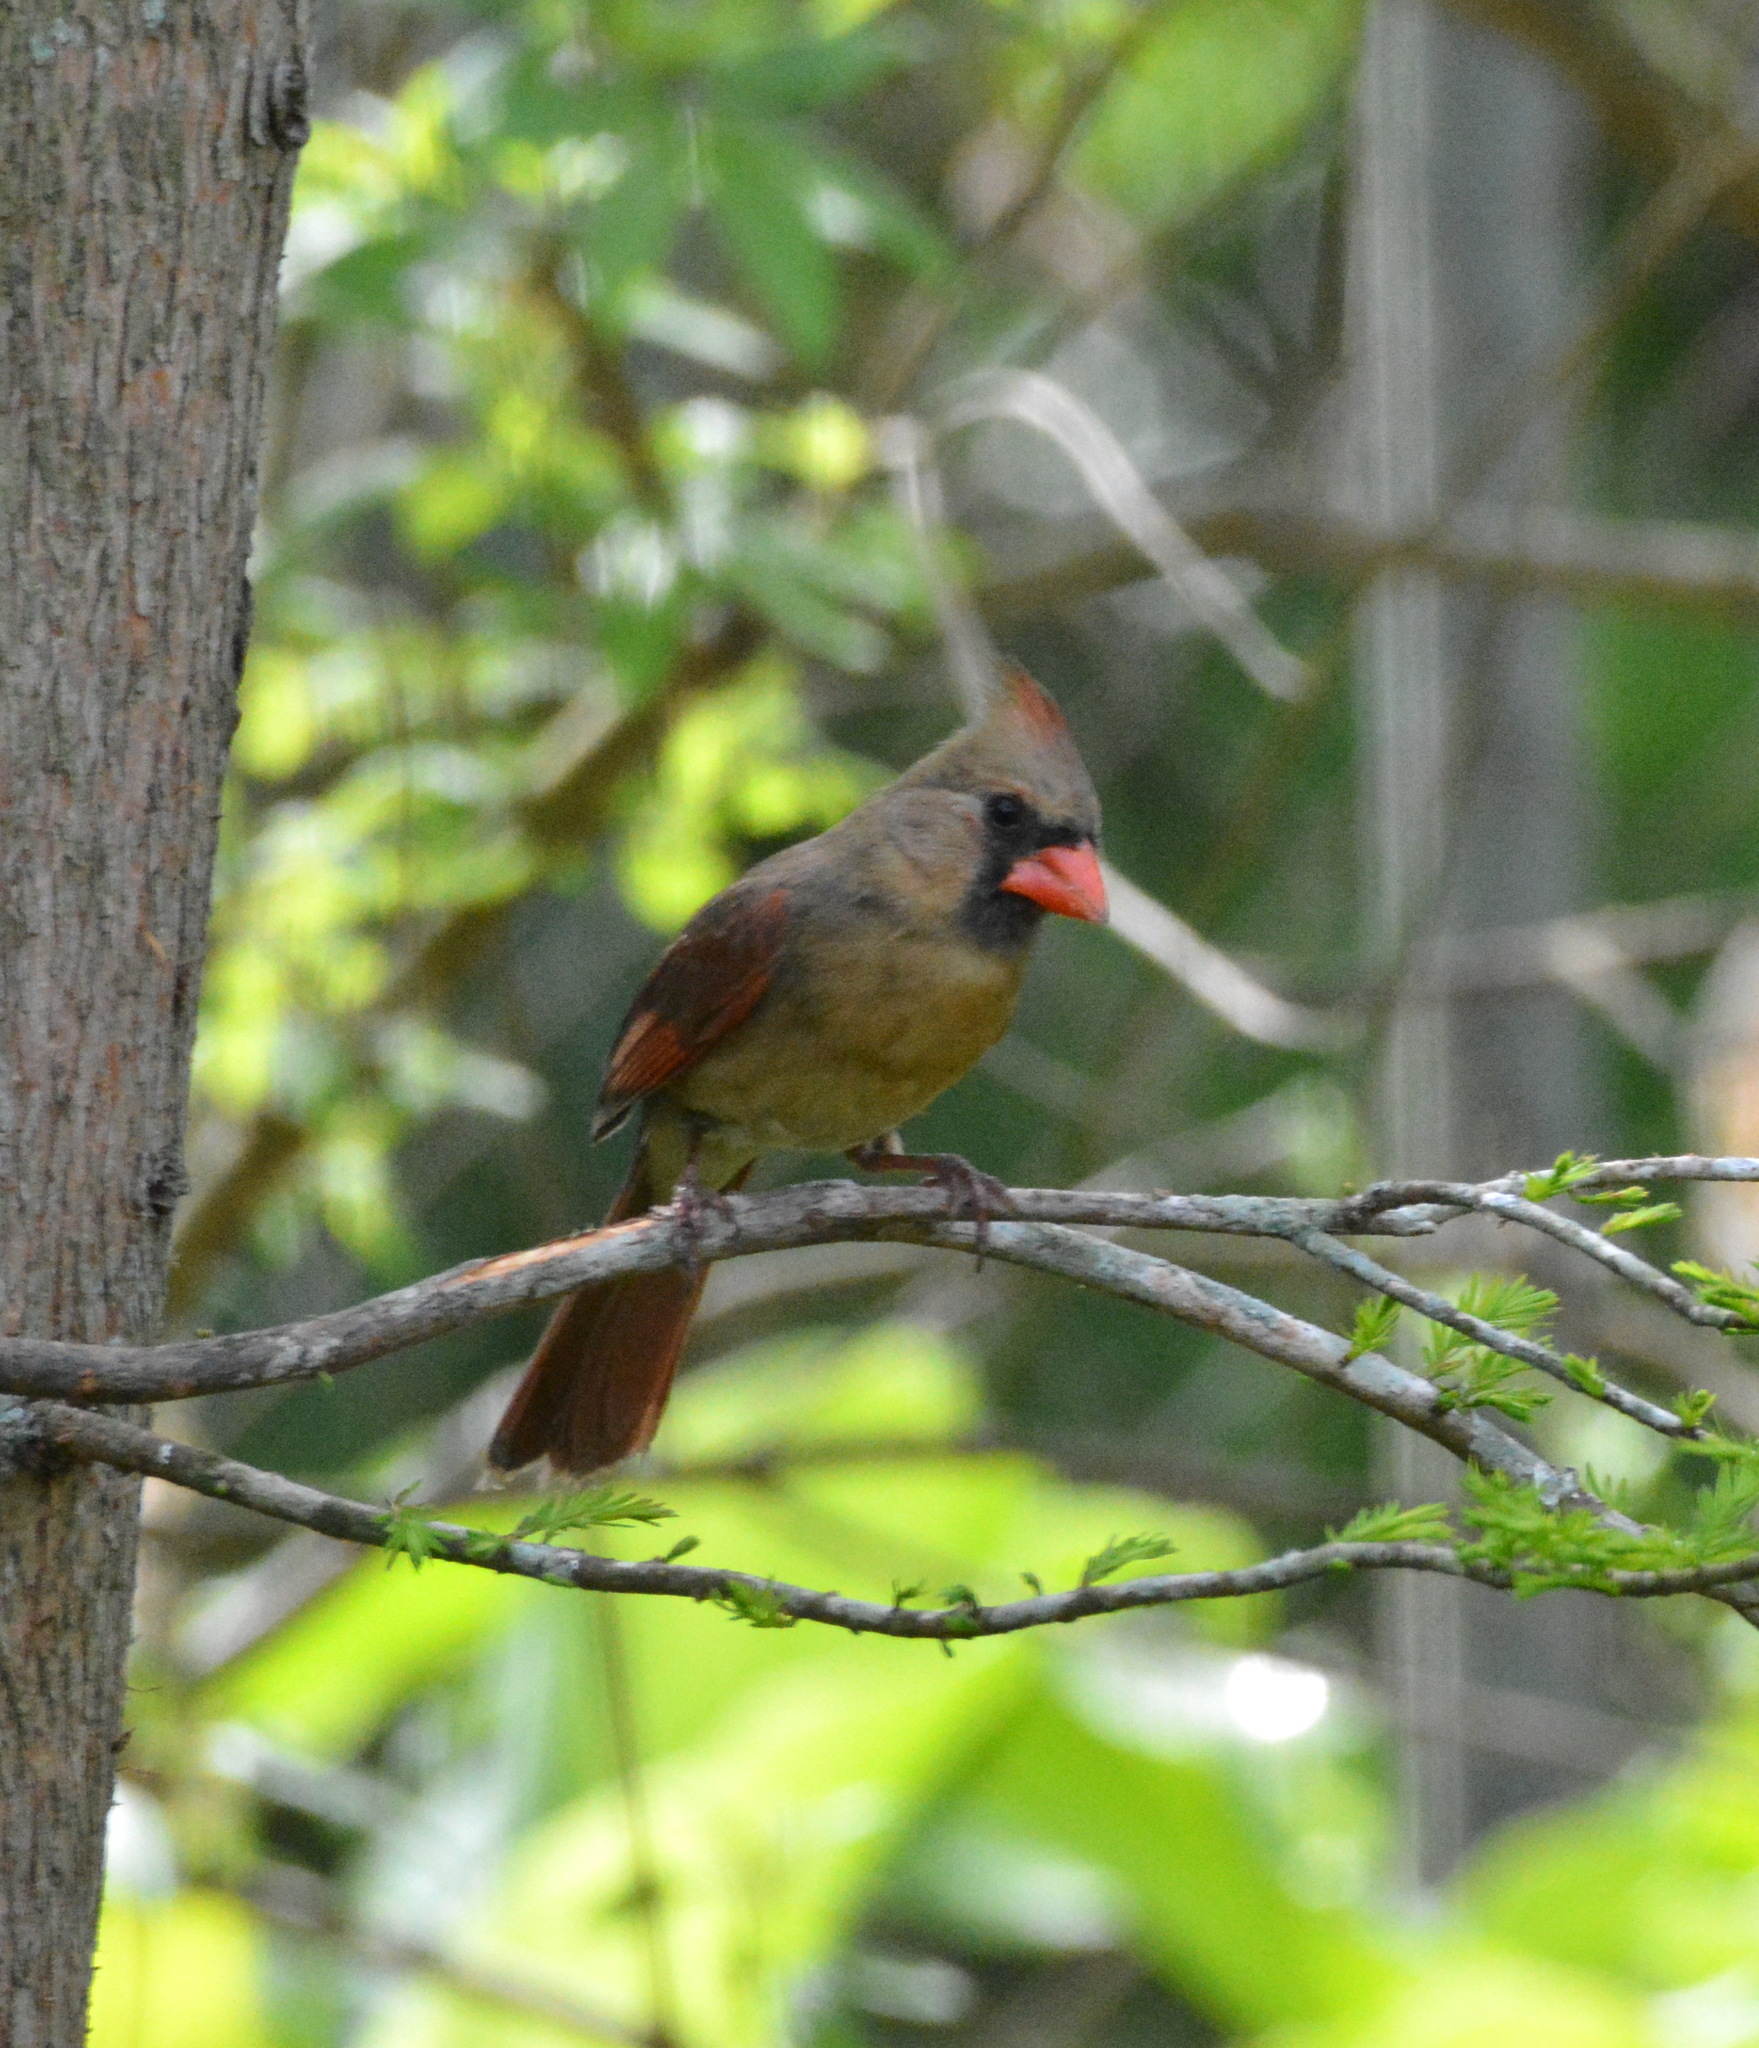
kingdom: Animalia
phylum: Chordata
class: Aves
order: Passeriformes
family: Cardinalidae
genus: Cardinalis
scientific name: Cardinalis cardinalis
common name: Northern cardinal
